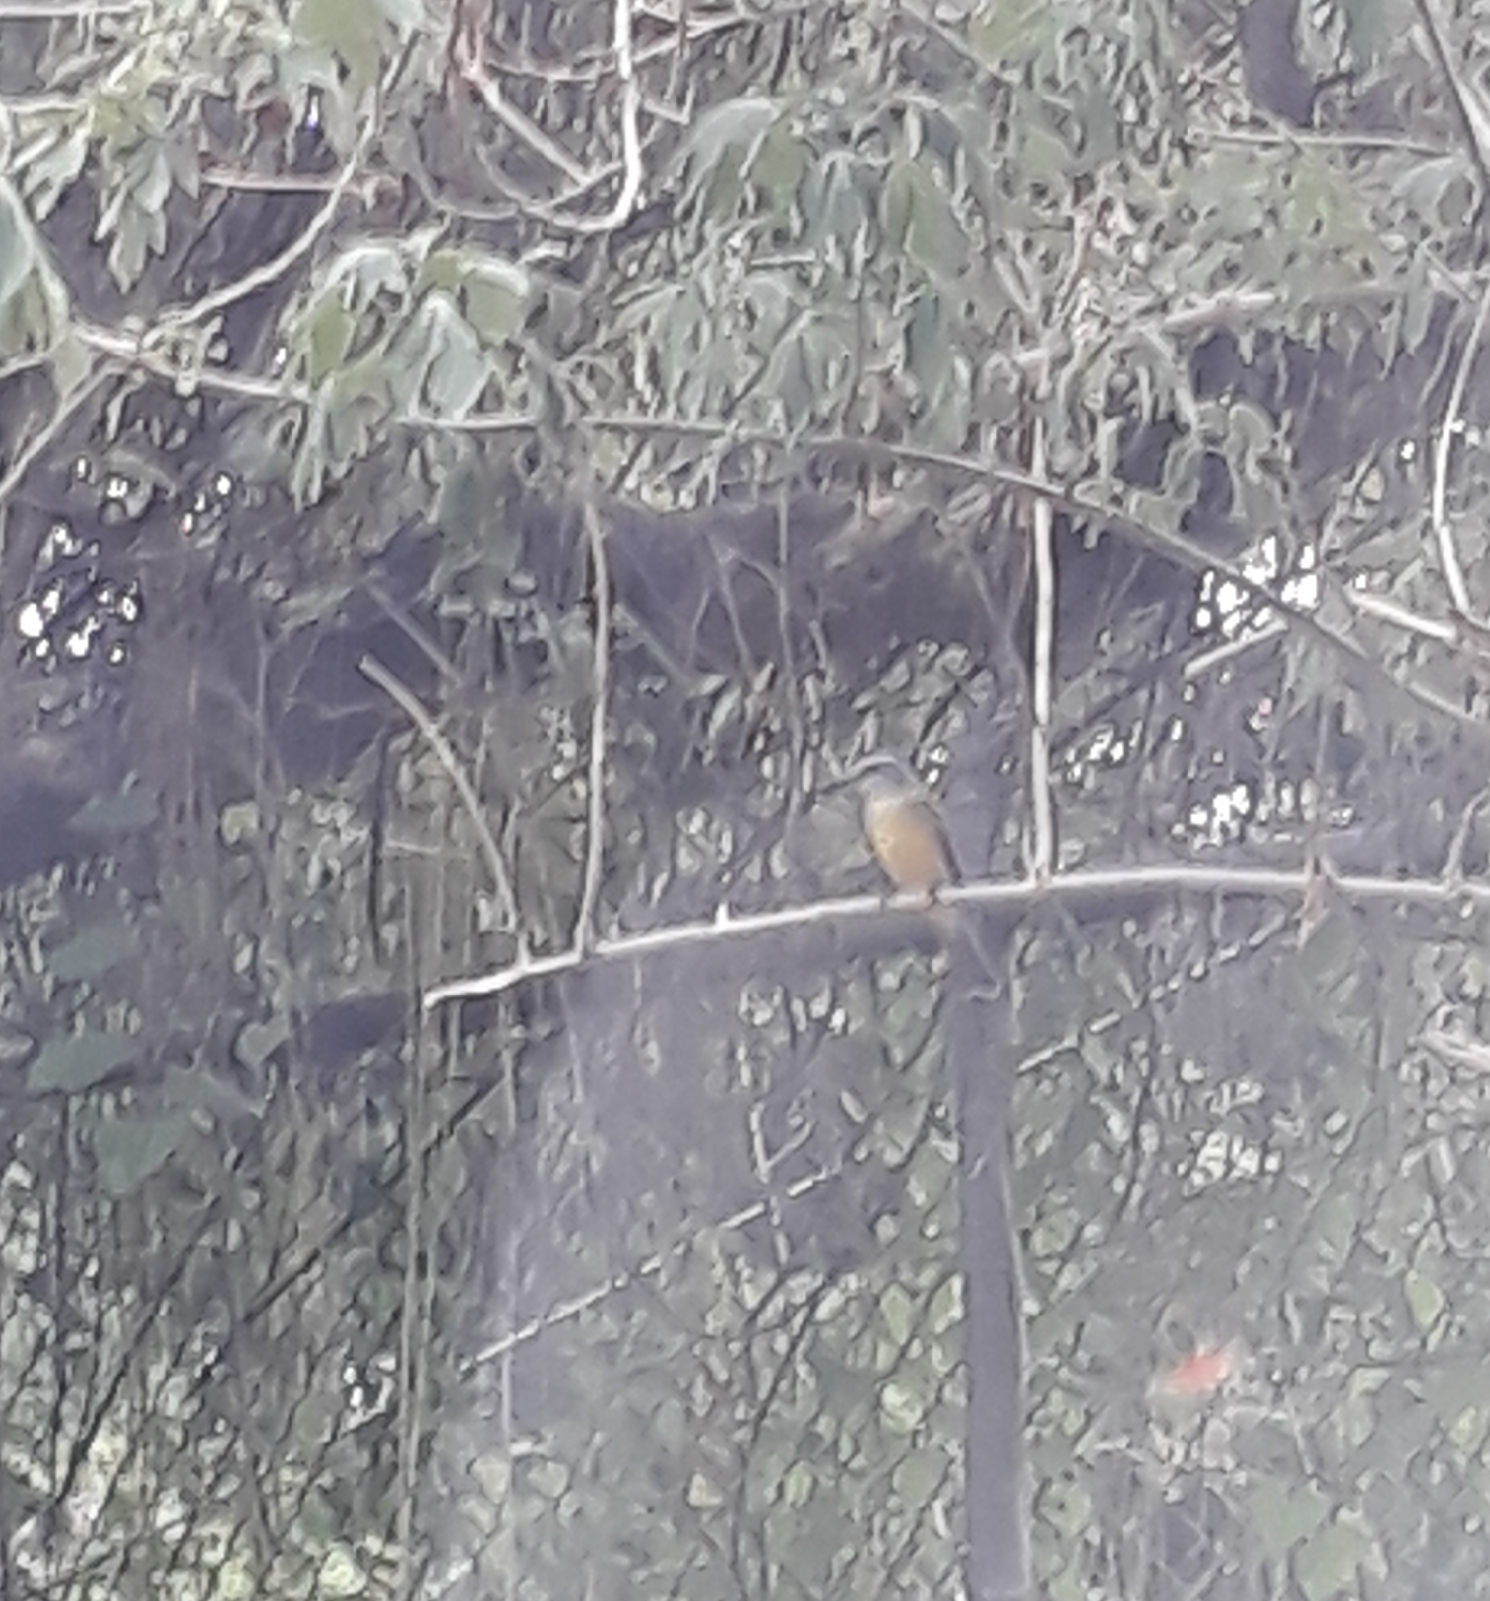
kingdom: Animalia
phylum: Chordata
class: Aves
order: Passeriformes
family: Tyrannidae
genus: Tyrannus
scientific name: Tyrannus melancholicus
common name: Tropical kingbird
